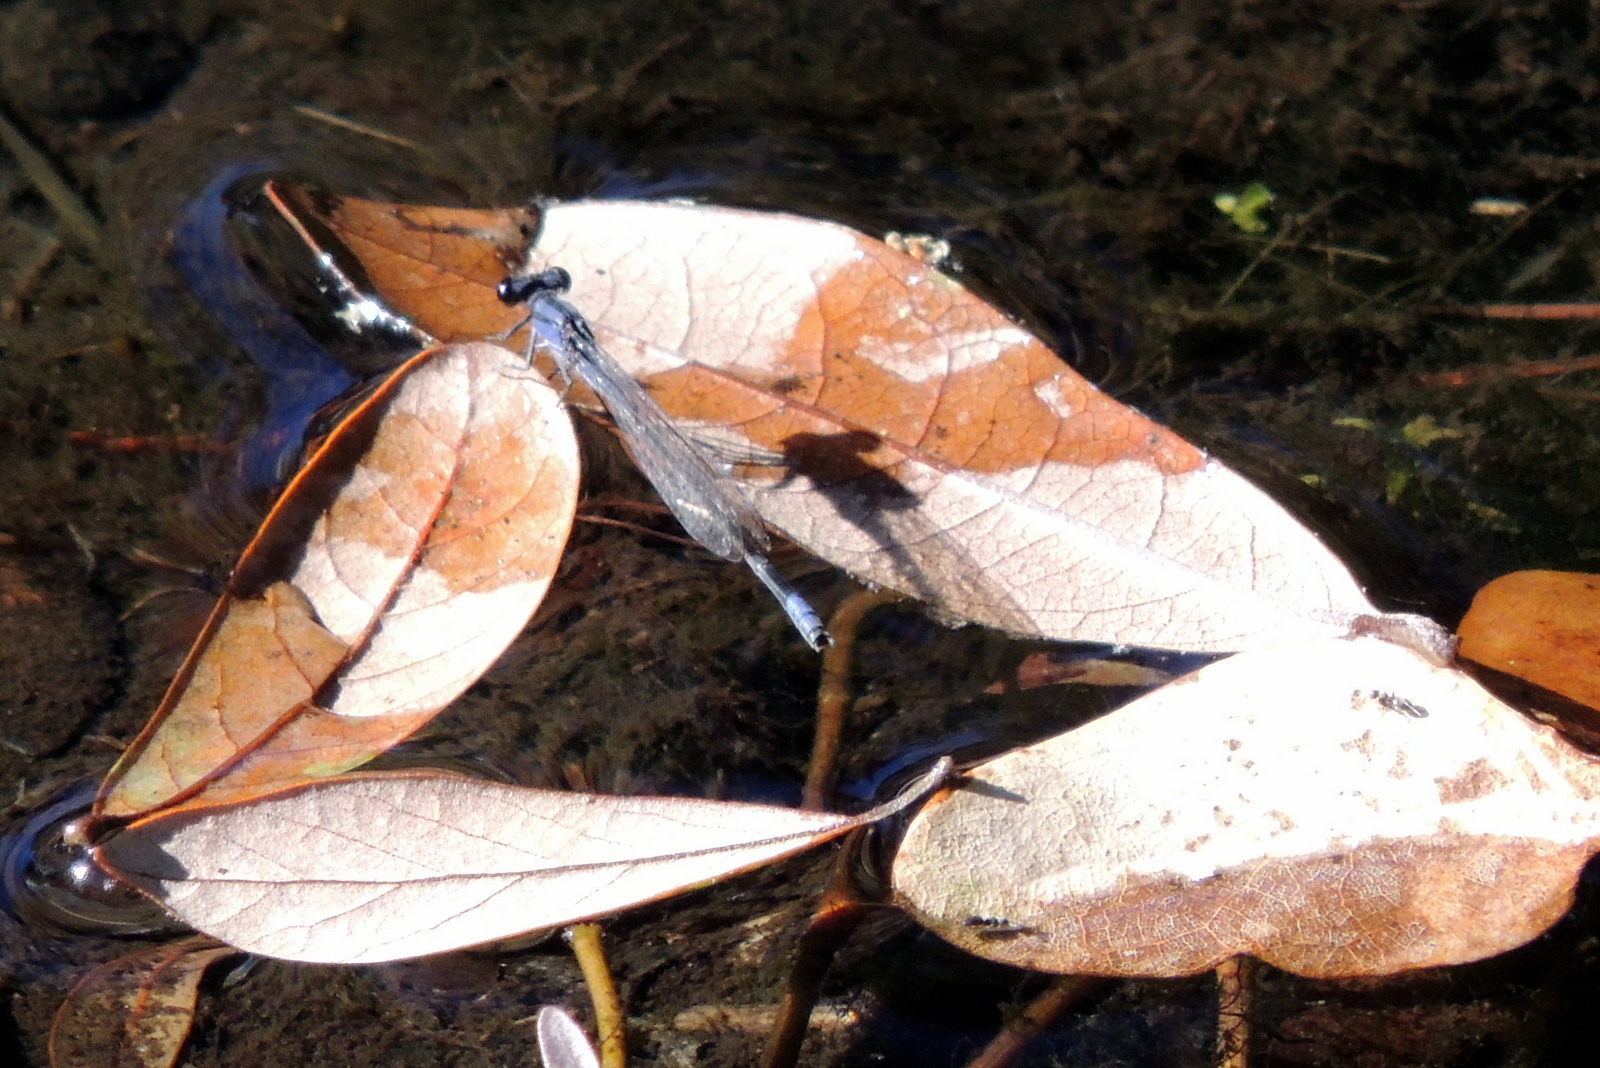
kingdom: Animalia
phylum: Arthropoda
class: Insecta
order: Odonata
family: Coenagrionidae
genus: Enallagma
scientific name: Enallagma cardenium
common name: Purple bluet
